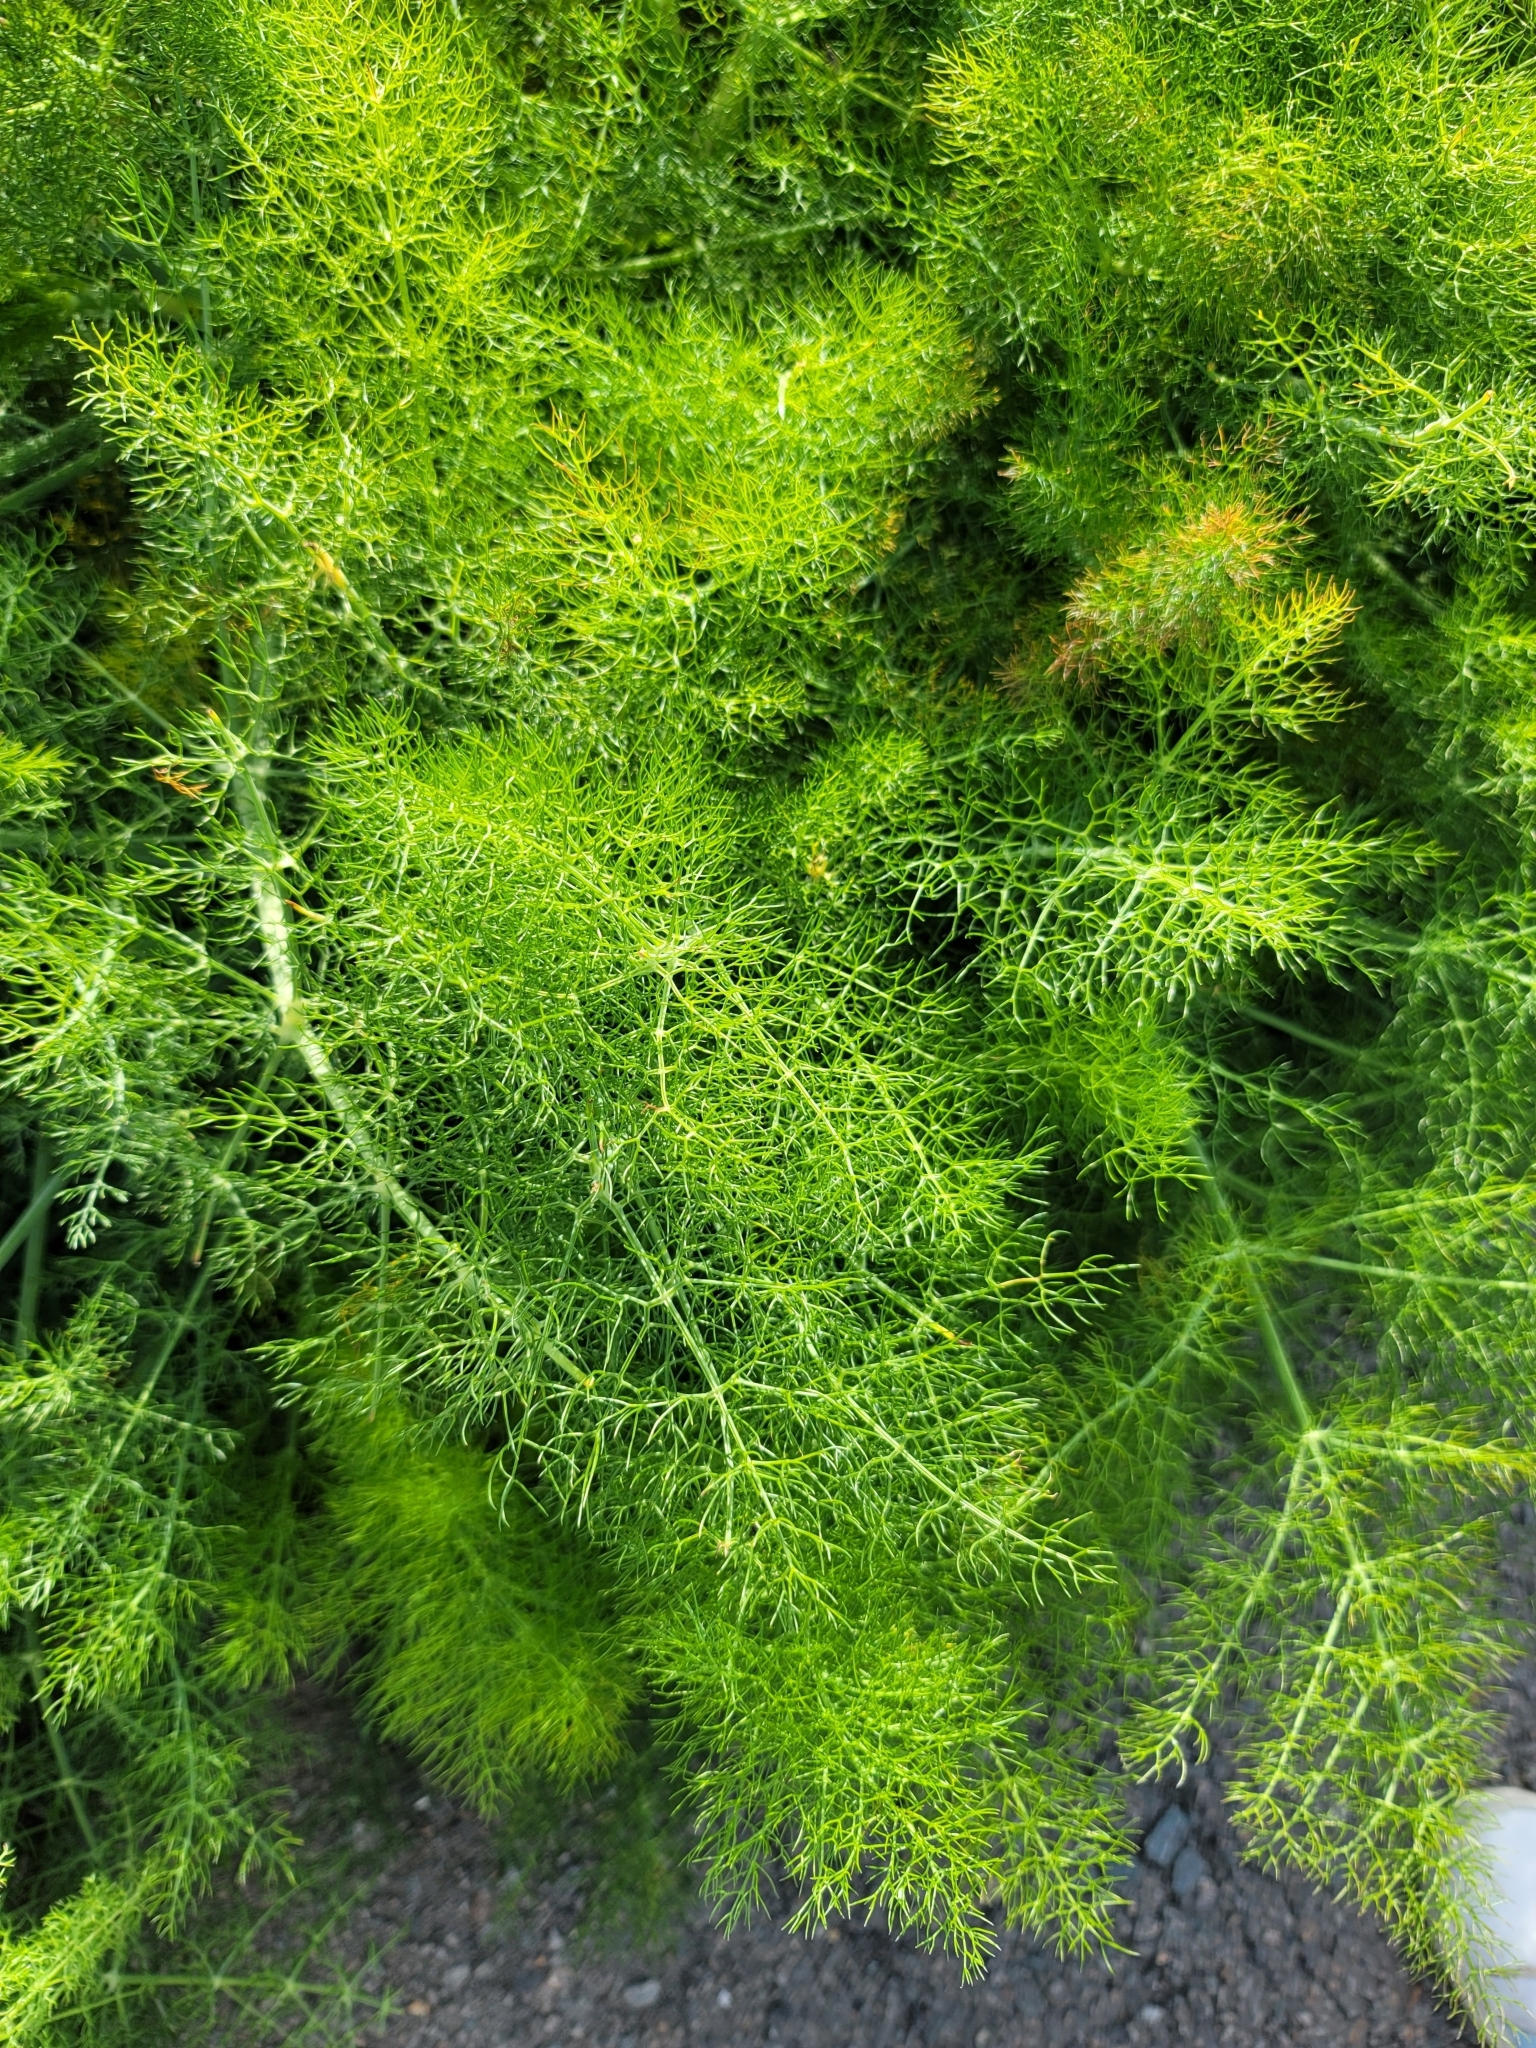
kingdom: Plantae
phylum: Tracheophyta
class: Magnoliopsida
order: Apiales
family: Apiaceae
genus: Foeniculum
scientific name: Foeniculum vulgare
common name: Fennel
